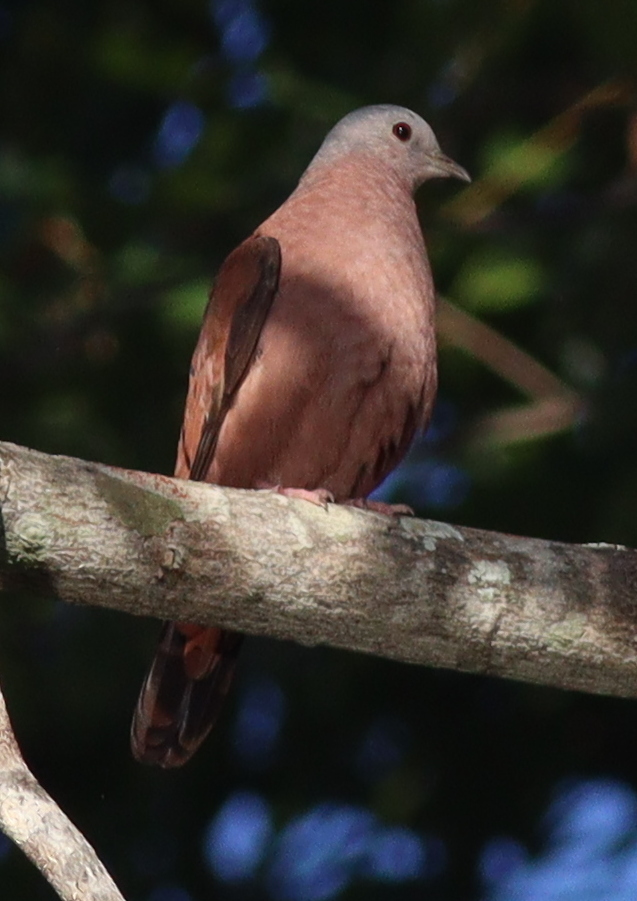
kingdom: Animalia
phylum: Chordata
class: Aves
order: Columbiformes
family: Columbidae
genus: Columbina
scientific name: Columbina talpacoti
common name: Ruddy ground dove
